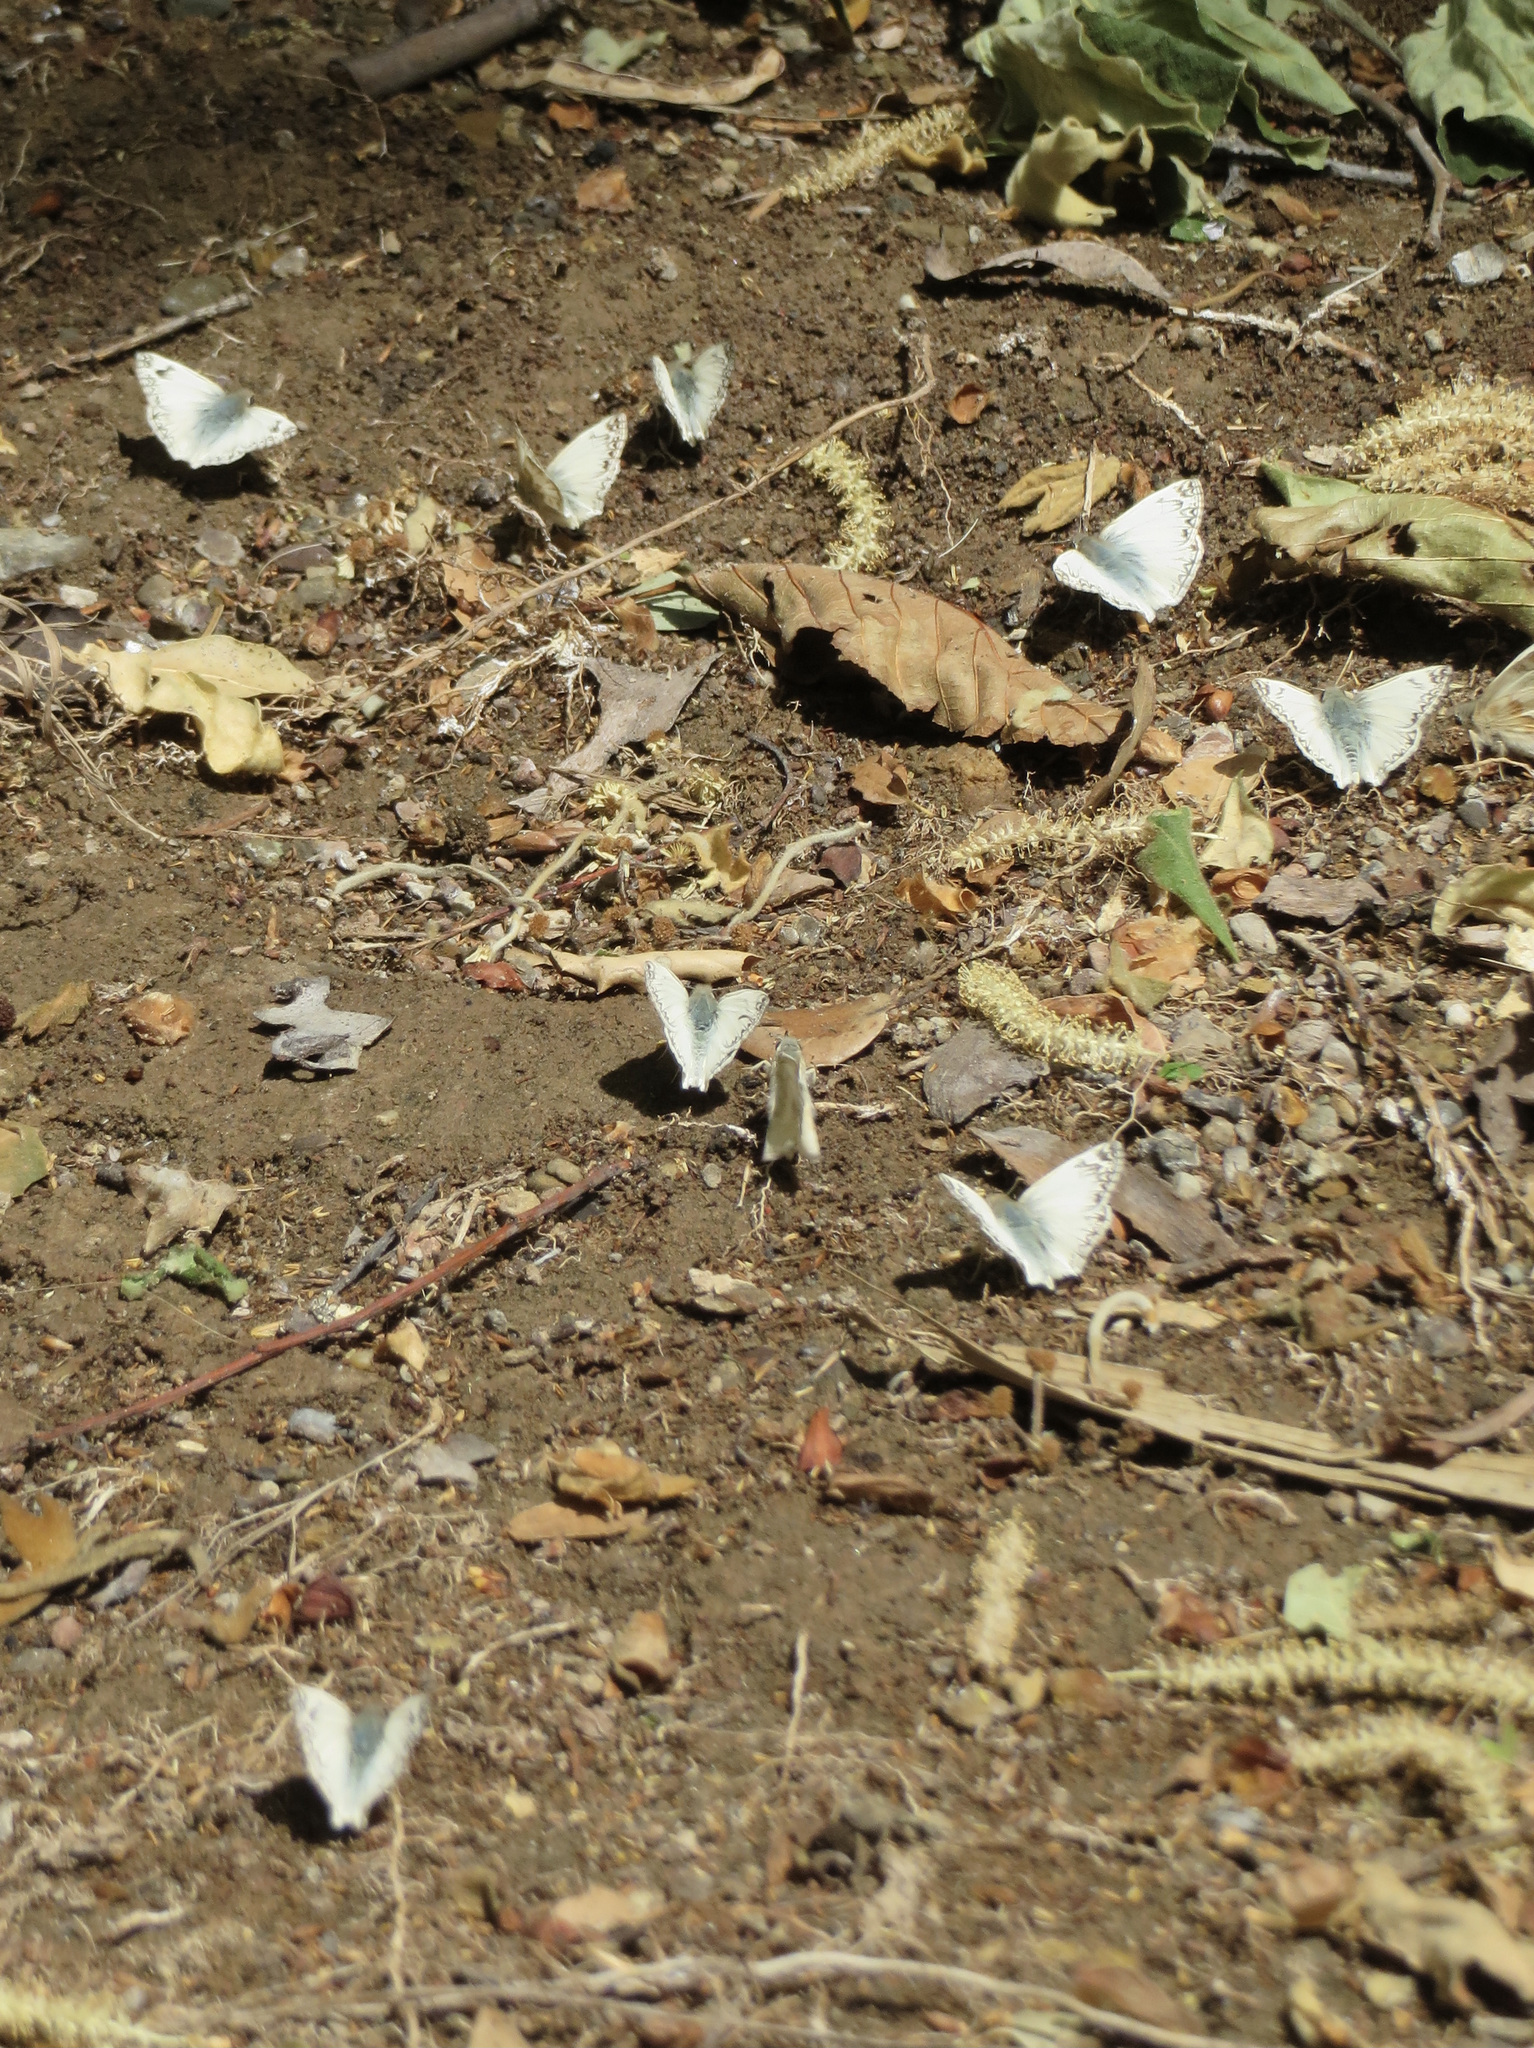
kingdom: Animalia
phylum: Arthropoda
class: Insecta
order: Lepidoptera
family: Hesperiidae
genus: Heliopetes
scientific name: Heliopetes ericetorum
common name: Northern white-skipper
